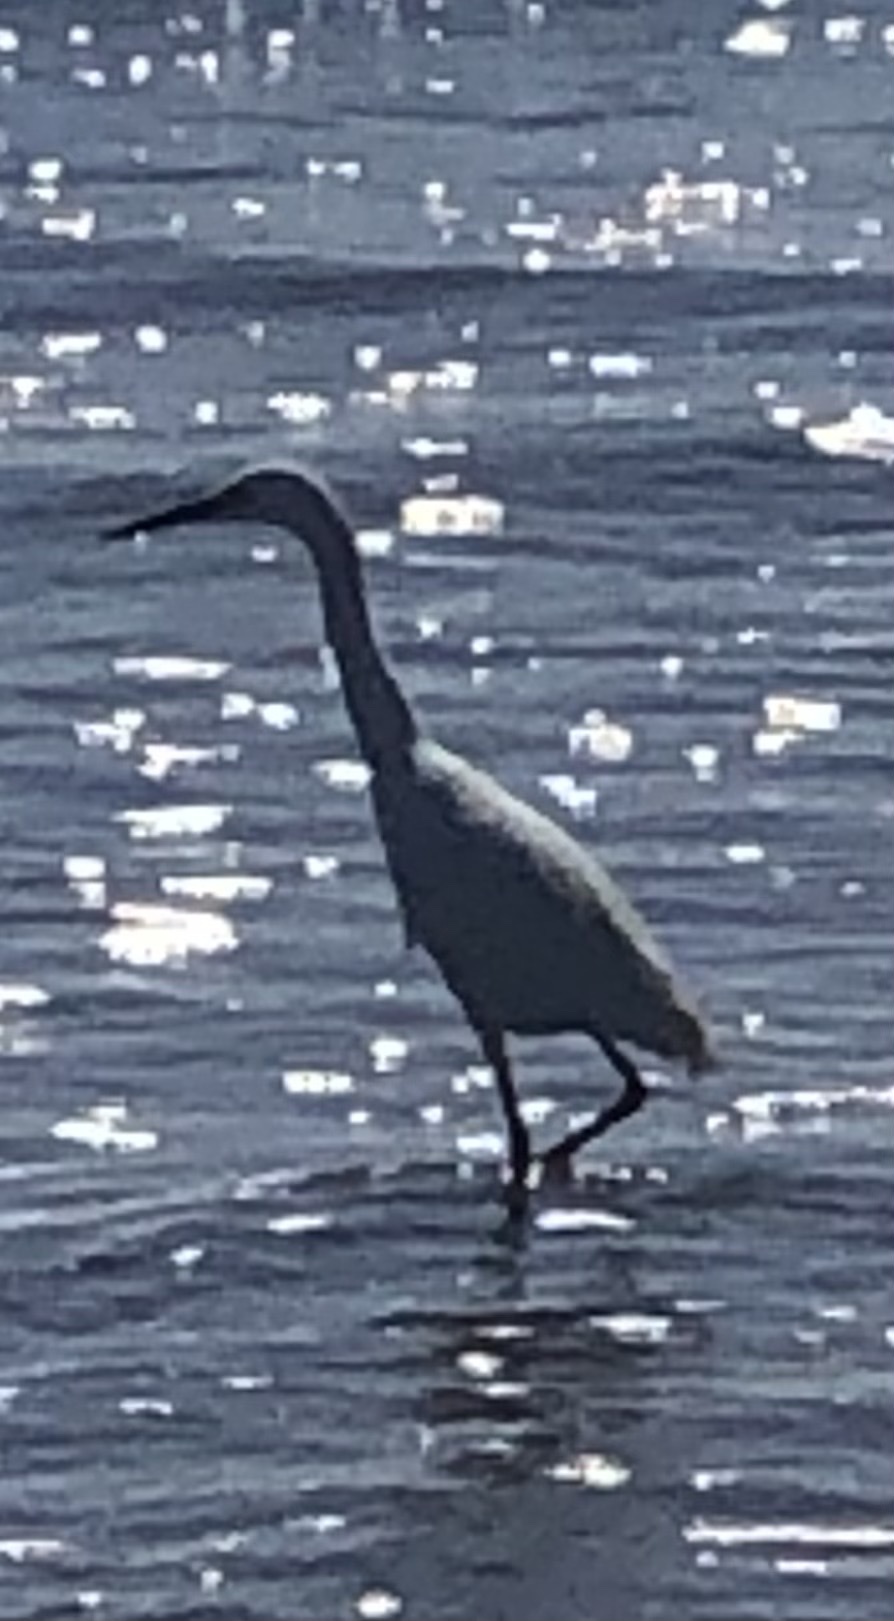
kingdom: Animalia
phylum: Chordata
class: Aves
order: Pelecaniformes
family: Ardeidae
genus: Egretta
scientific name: Egretta thula
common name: Snowy egret
